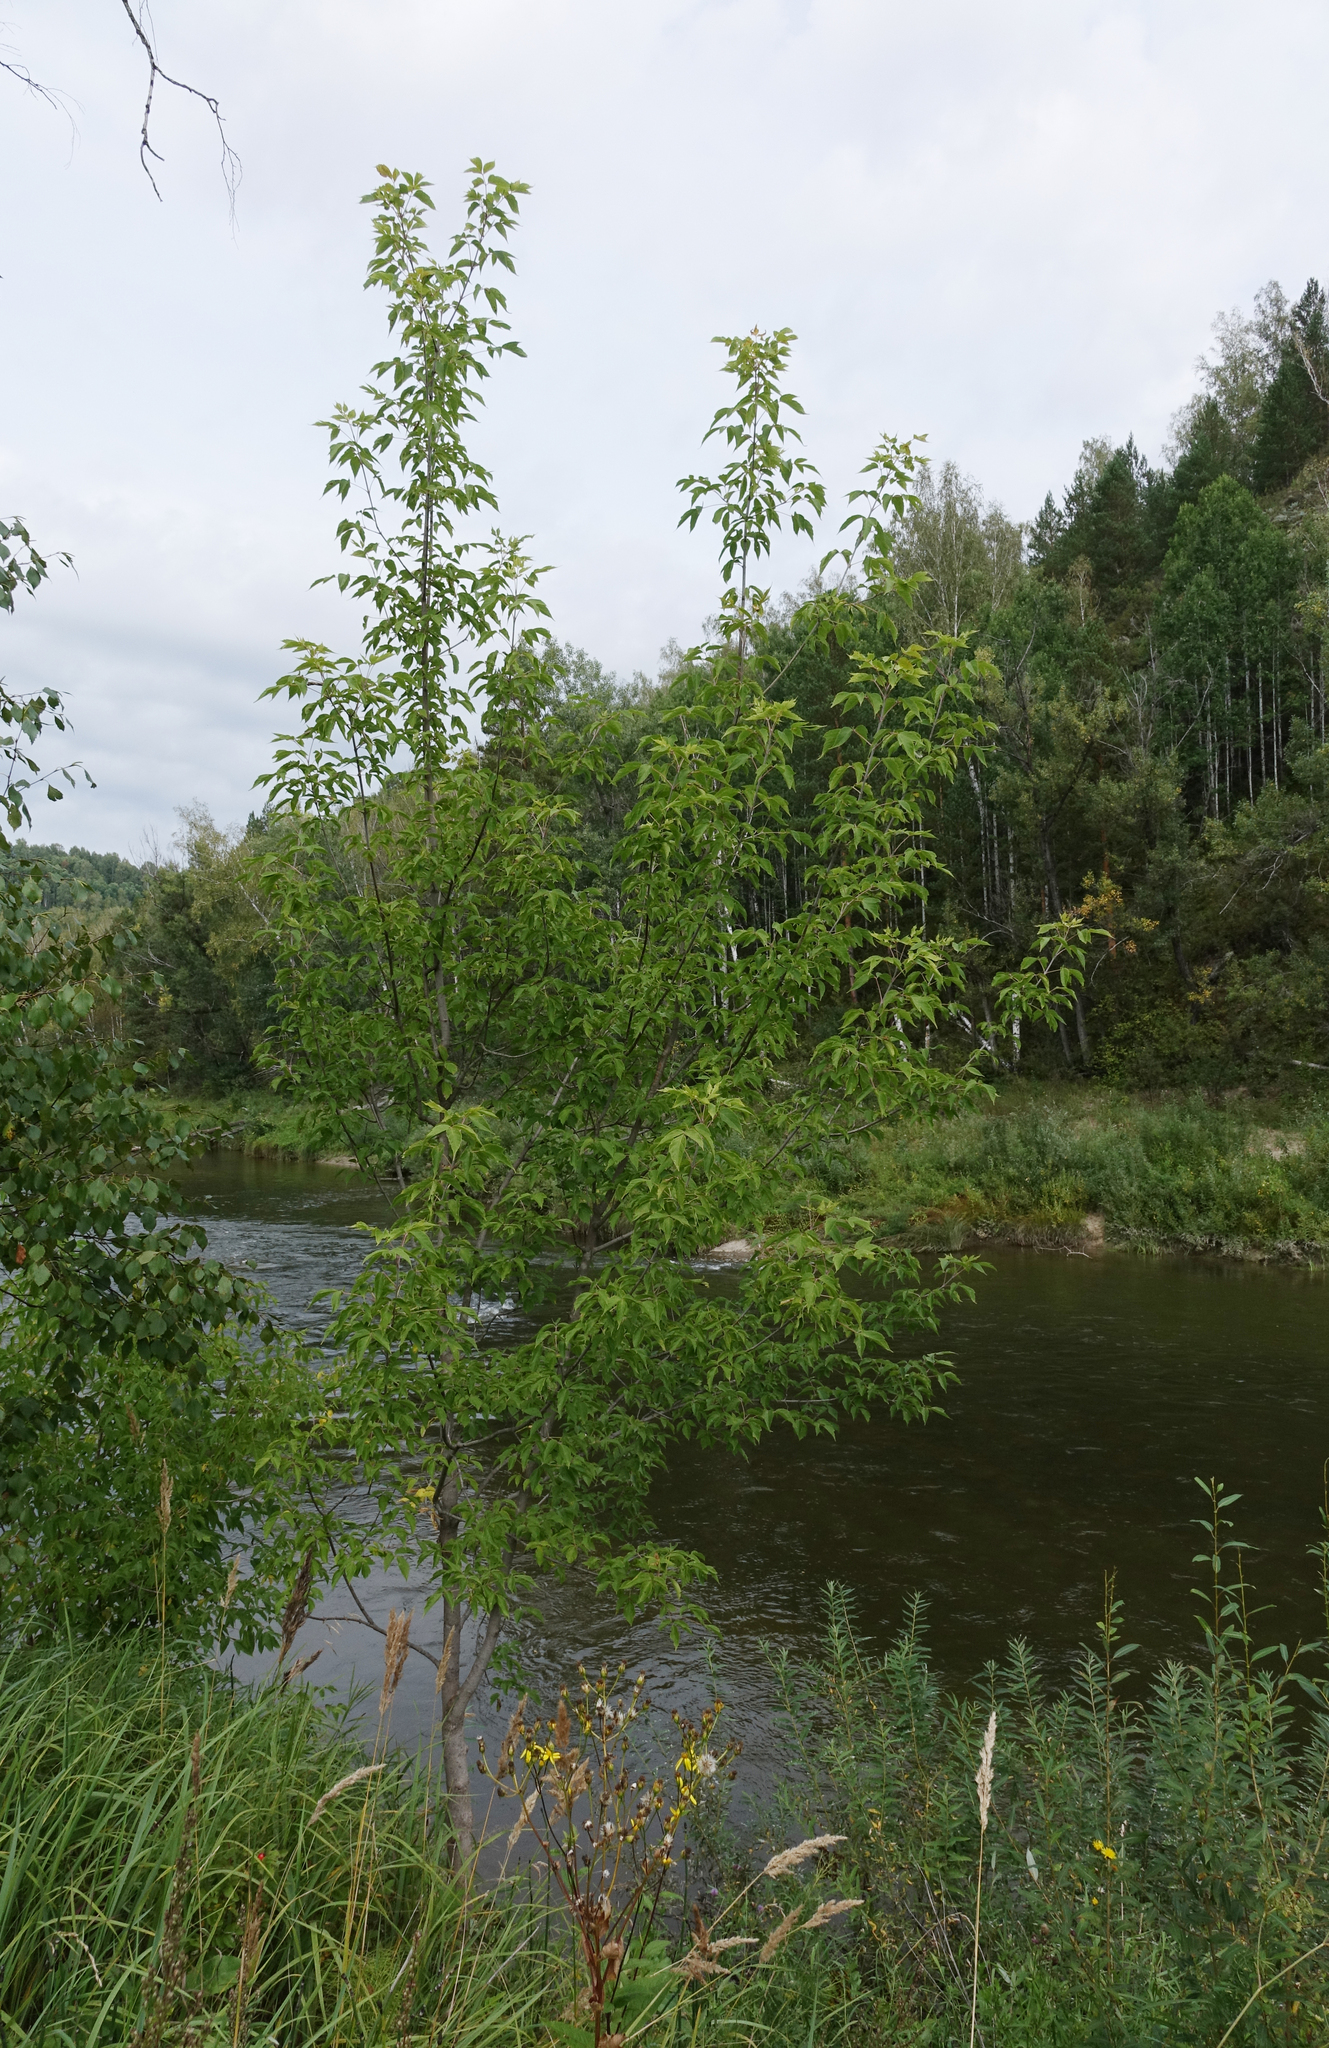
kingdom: Plantae
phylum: Tracheophyta
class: Magnoliopsida
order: Sapindales
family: Sapindaceae
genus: Acer
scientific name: Acer negundo
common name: Ashleaf maple
